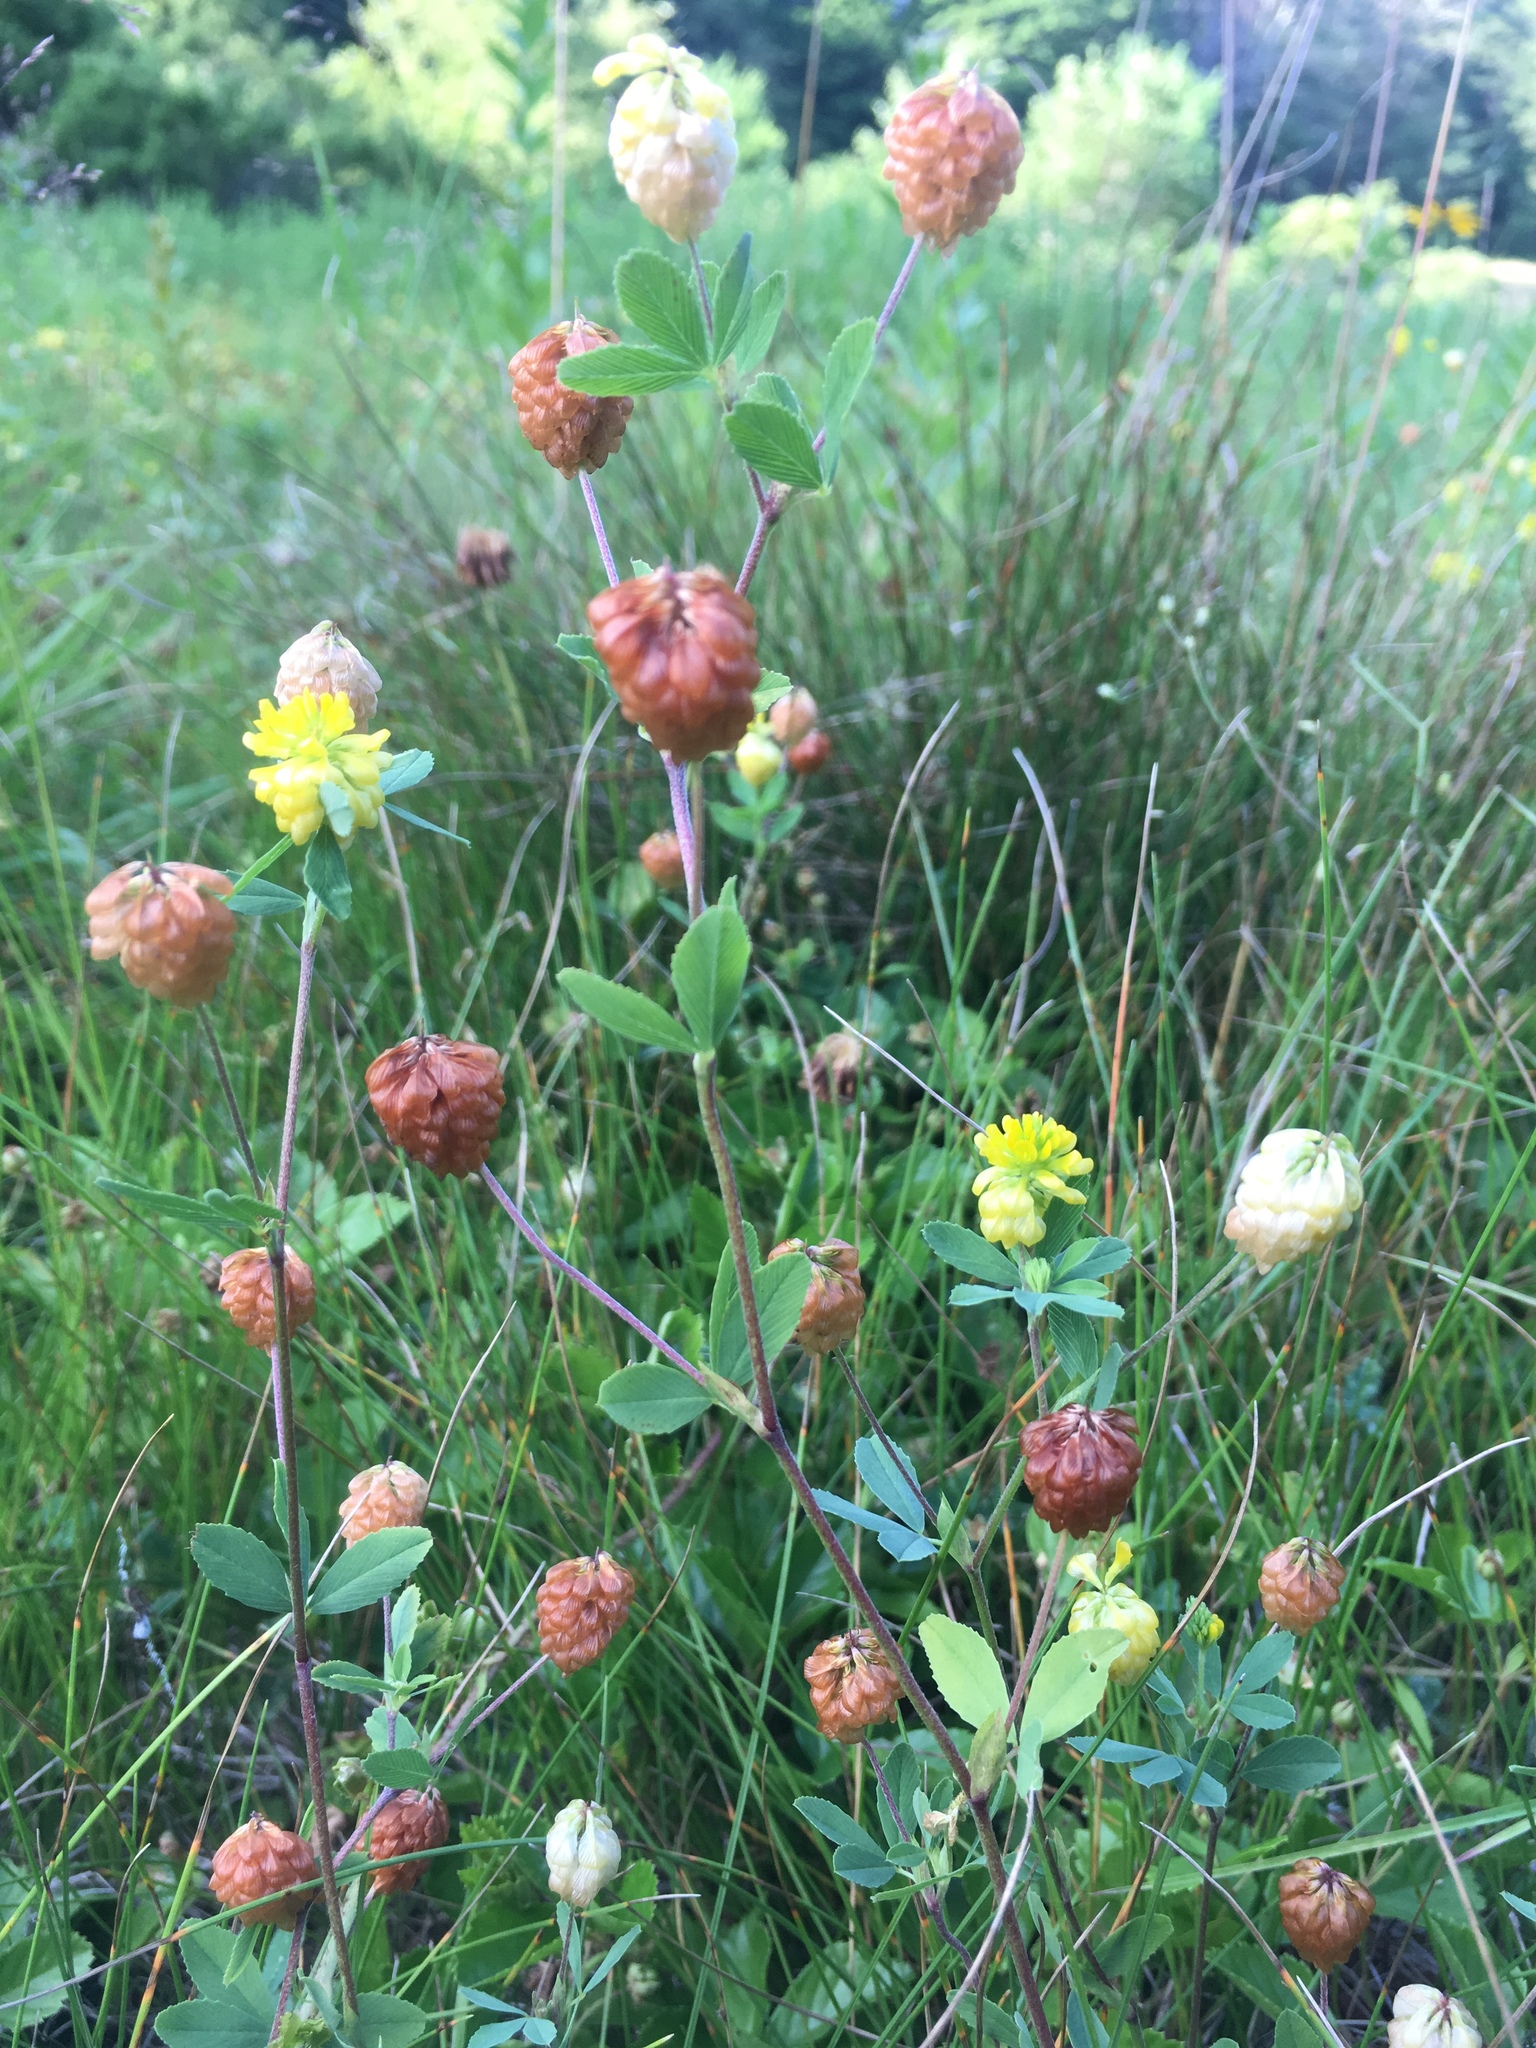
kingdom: Plantae
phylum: Tracheophyta
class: Magnoliopsida
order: Fabales
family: Fabaceae
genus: Trifolium
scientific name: Trifolium aureum
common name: Golden clover
